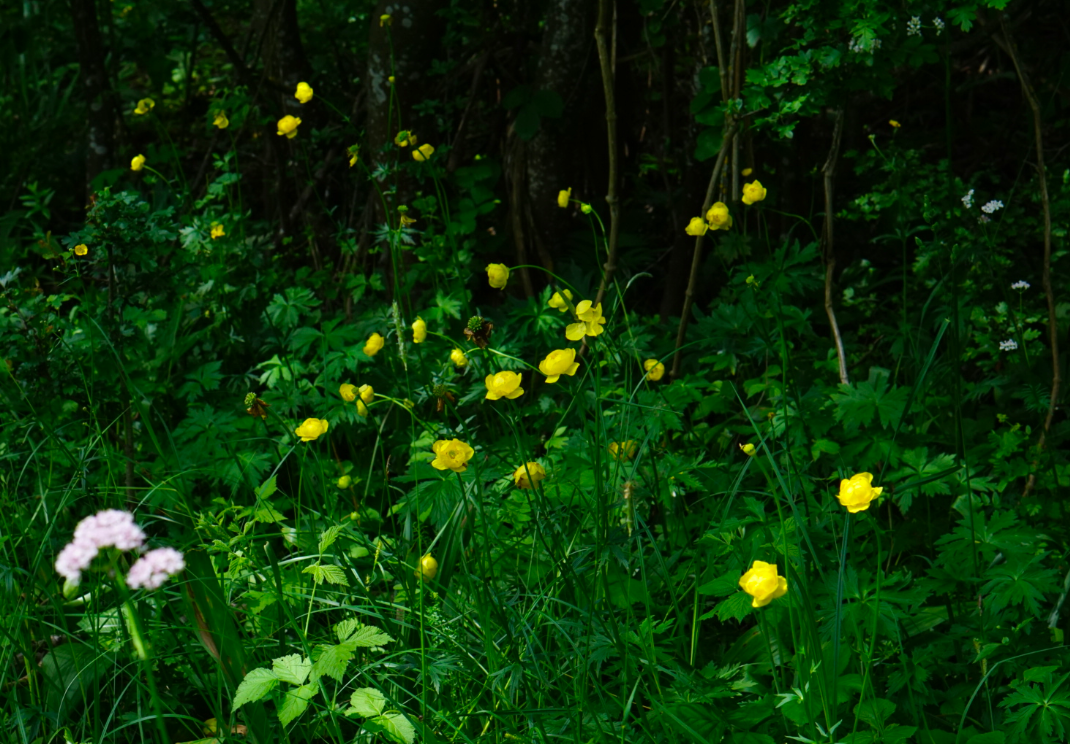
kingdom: Plantae
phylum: Tracheophyta
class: Magnoliopsida
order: Ranunculales
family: Ranunculaceae
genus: Trollius
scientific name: Trollius europaeus
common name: European globeflower
